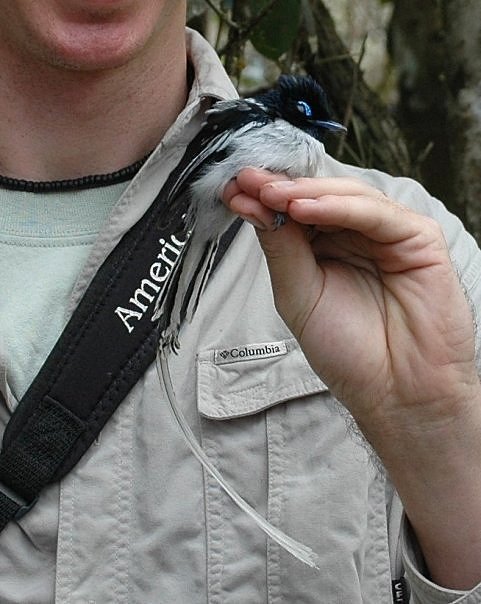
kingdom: Animalia
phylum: Chordata
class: Aves
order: Passeriformes
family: Monarchidae
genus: Terpsiphone
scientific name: Terpsiphone mutata
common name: Malagasy paradise flycatcher
